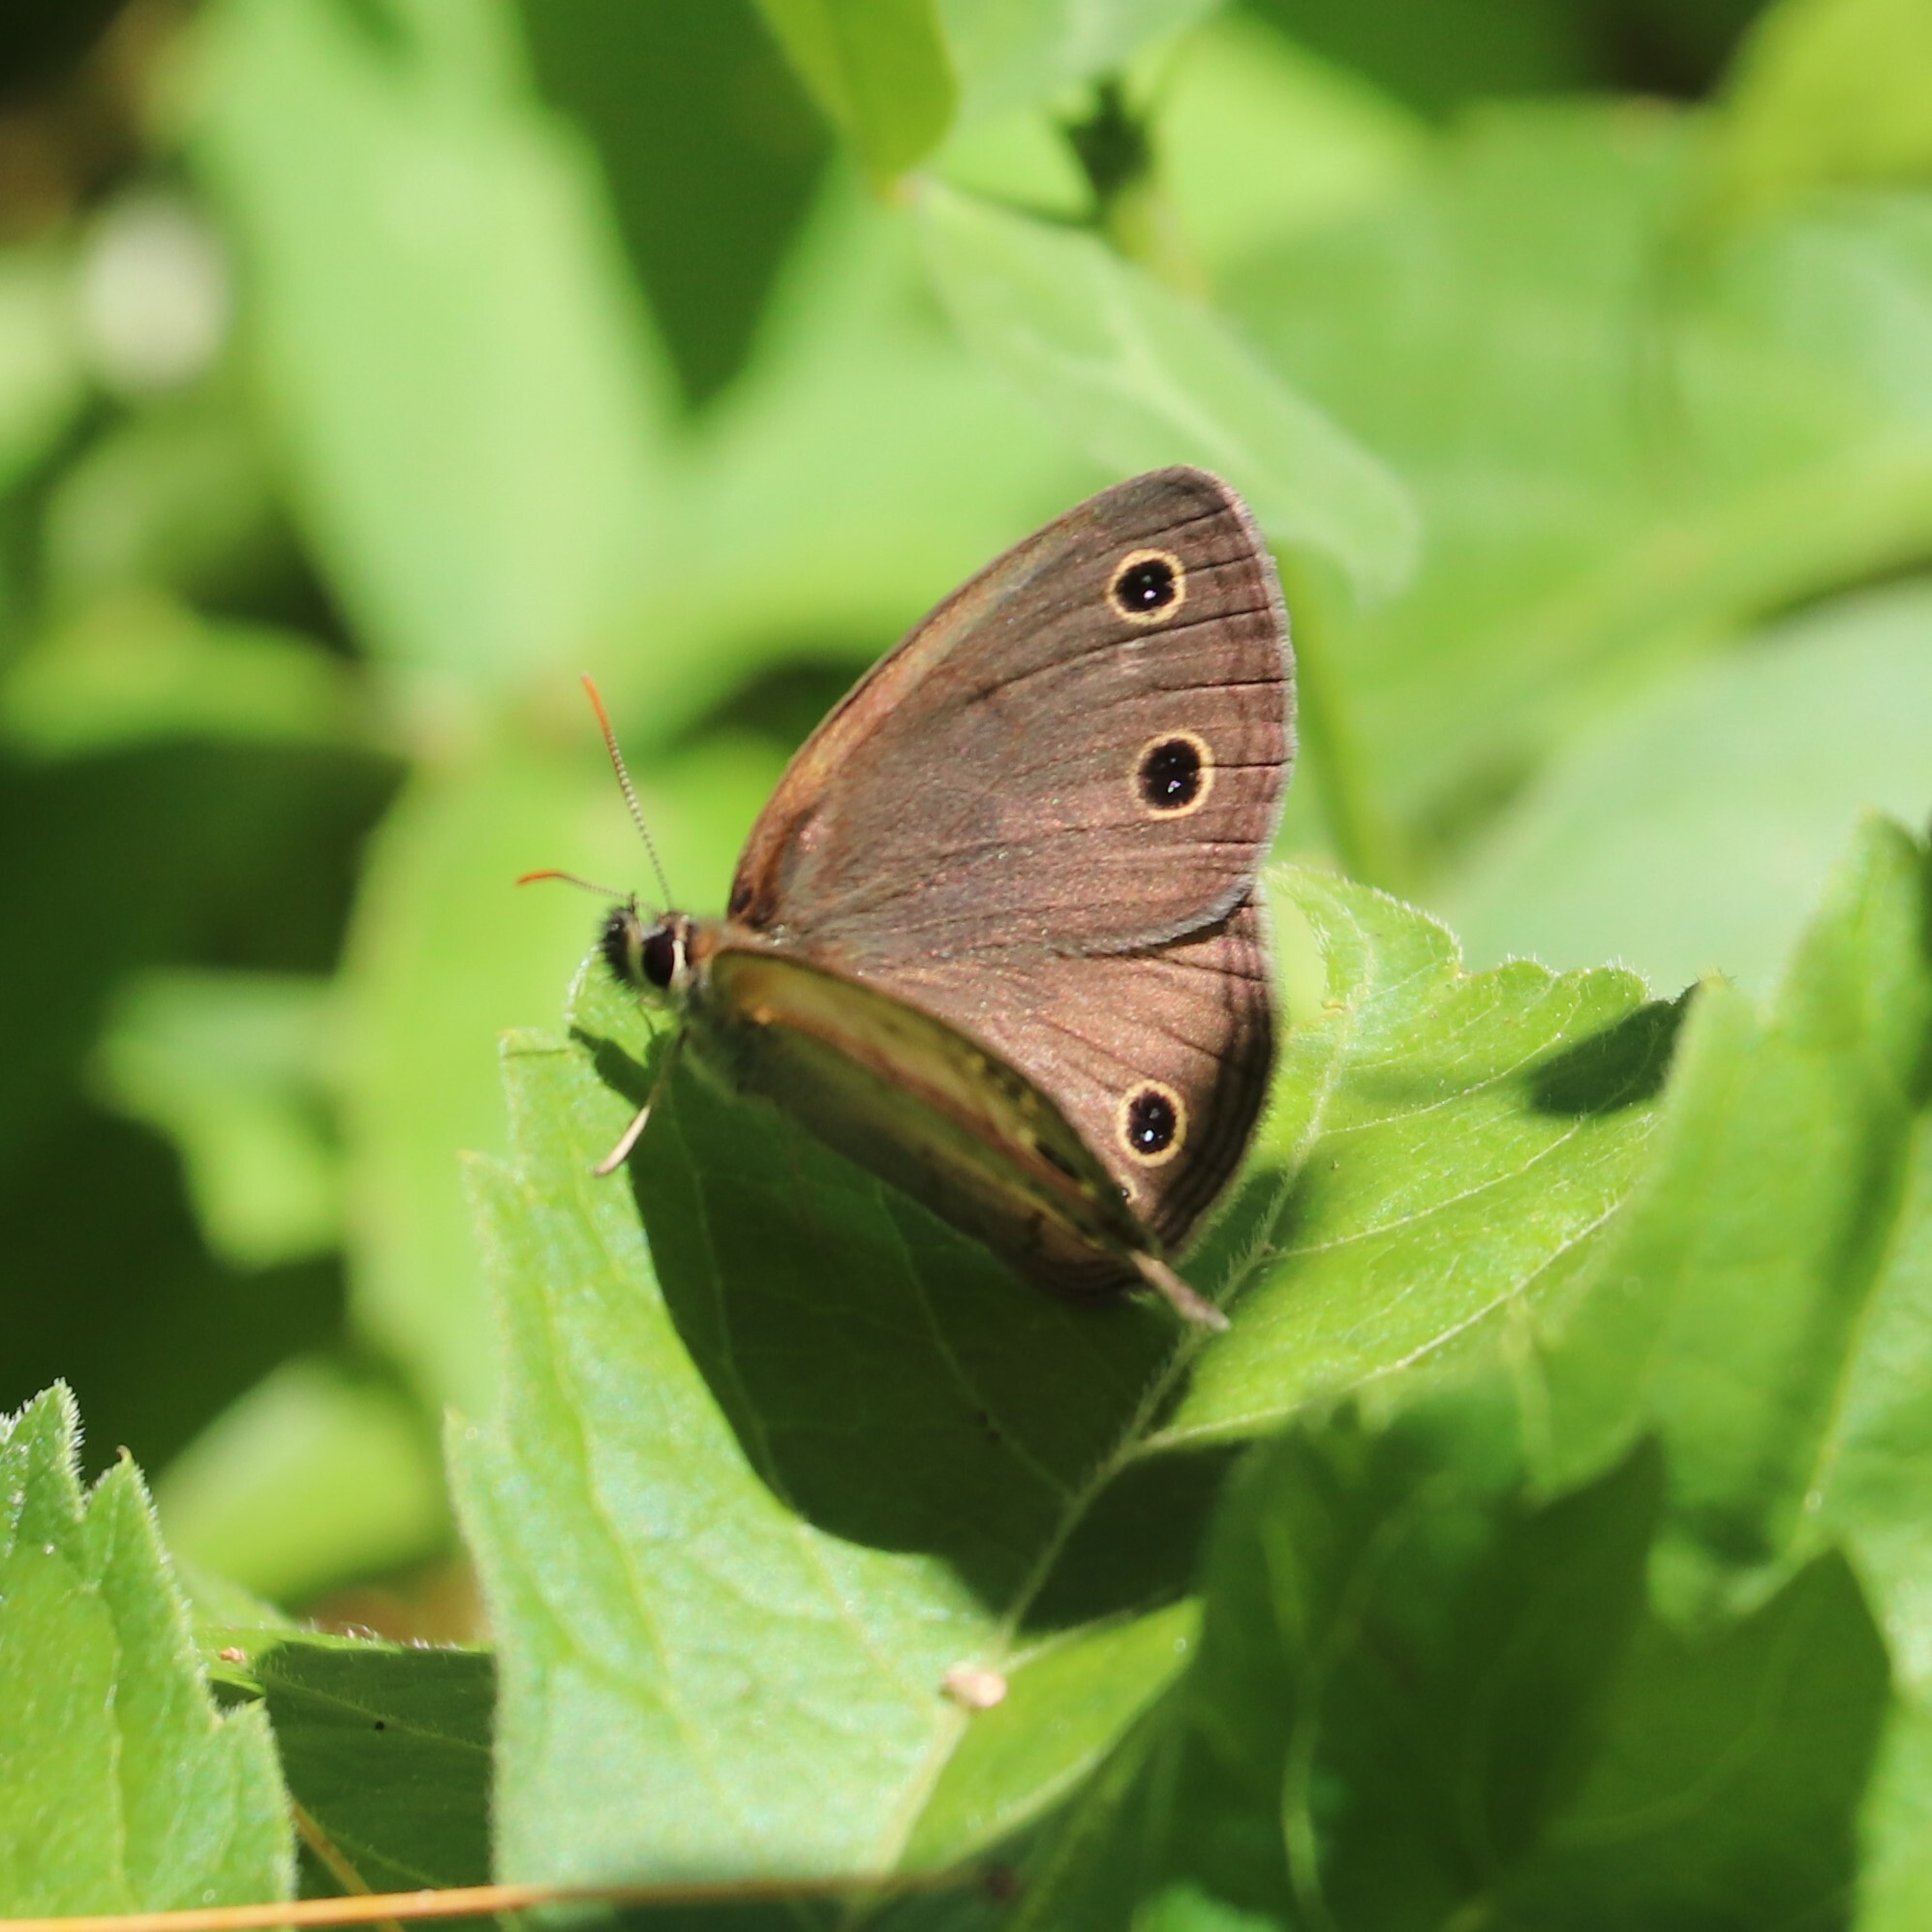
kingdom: Animalia
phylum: Arthropoda
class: Insecta
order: Lepidoptera
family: Nymphalidae
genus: Euptychia
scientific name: Euptychia cymela
